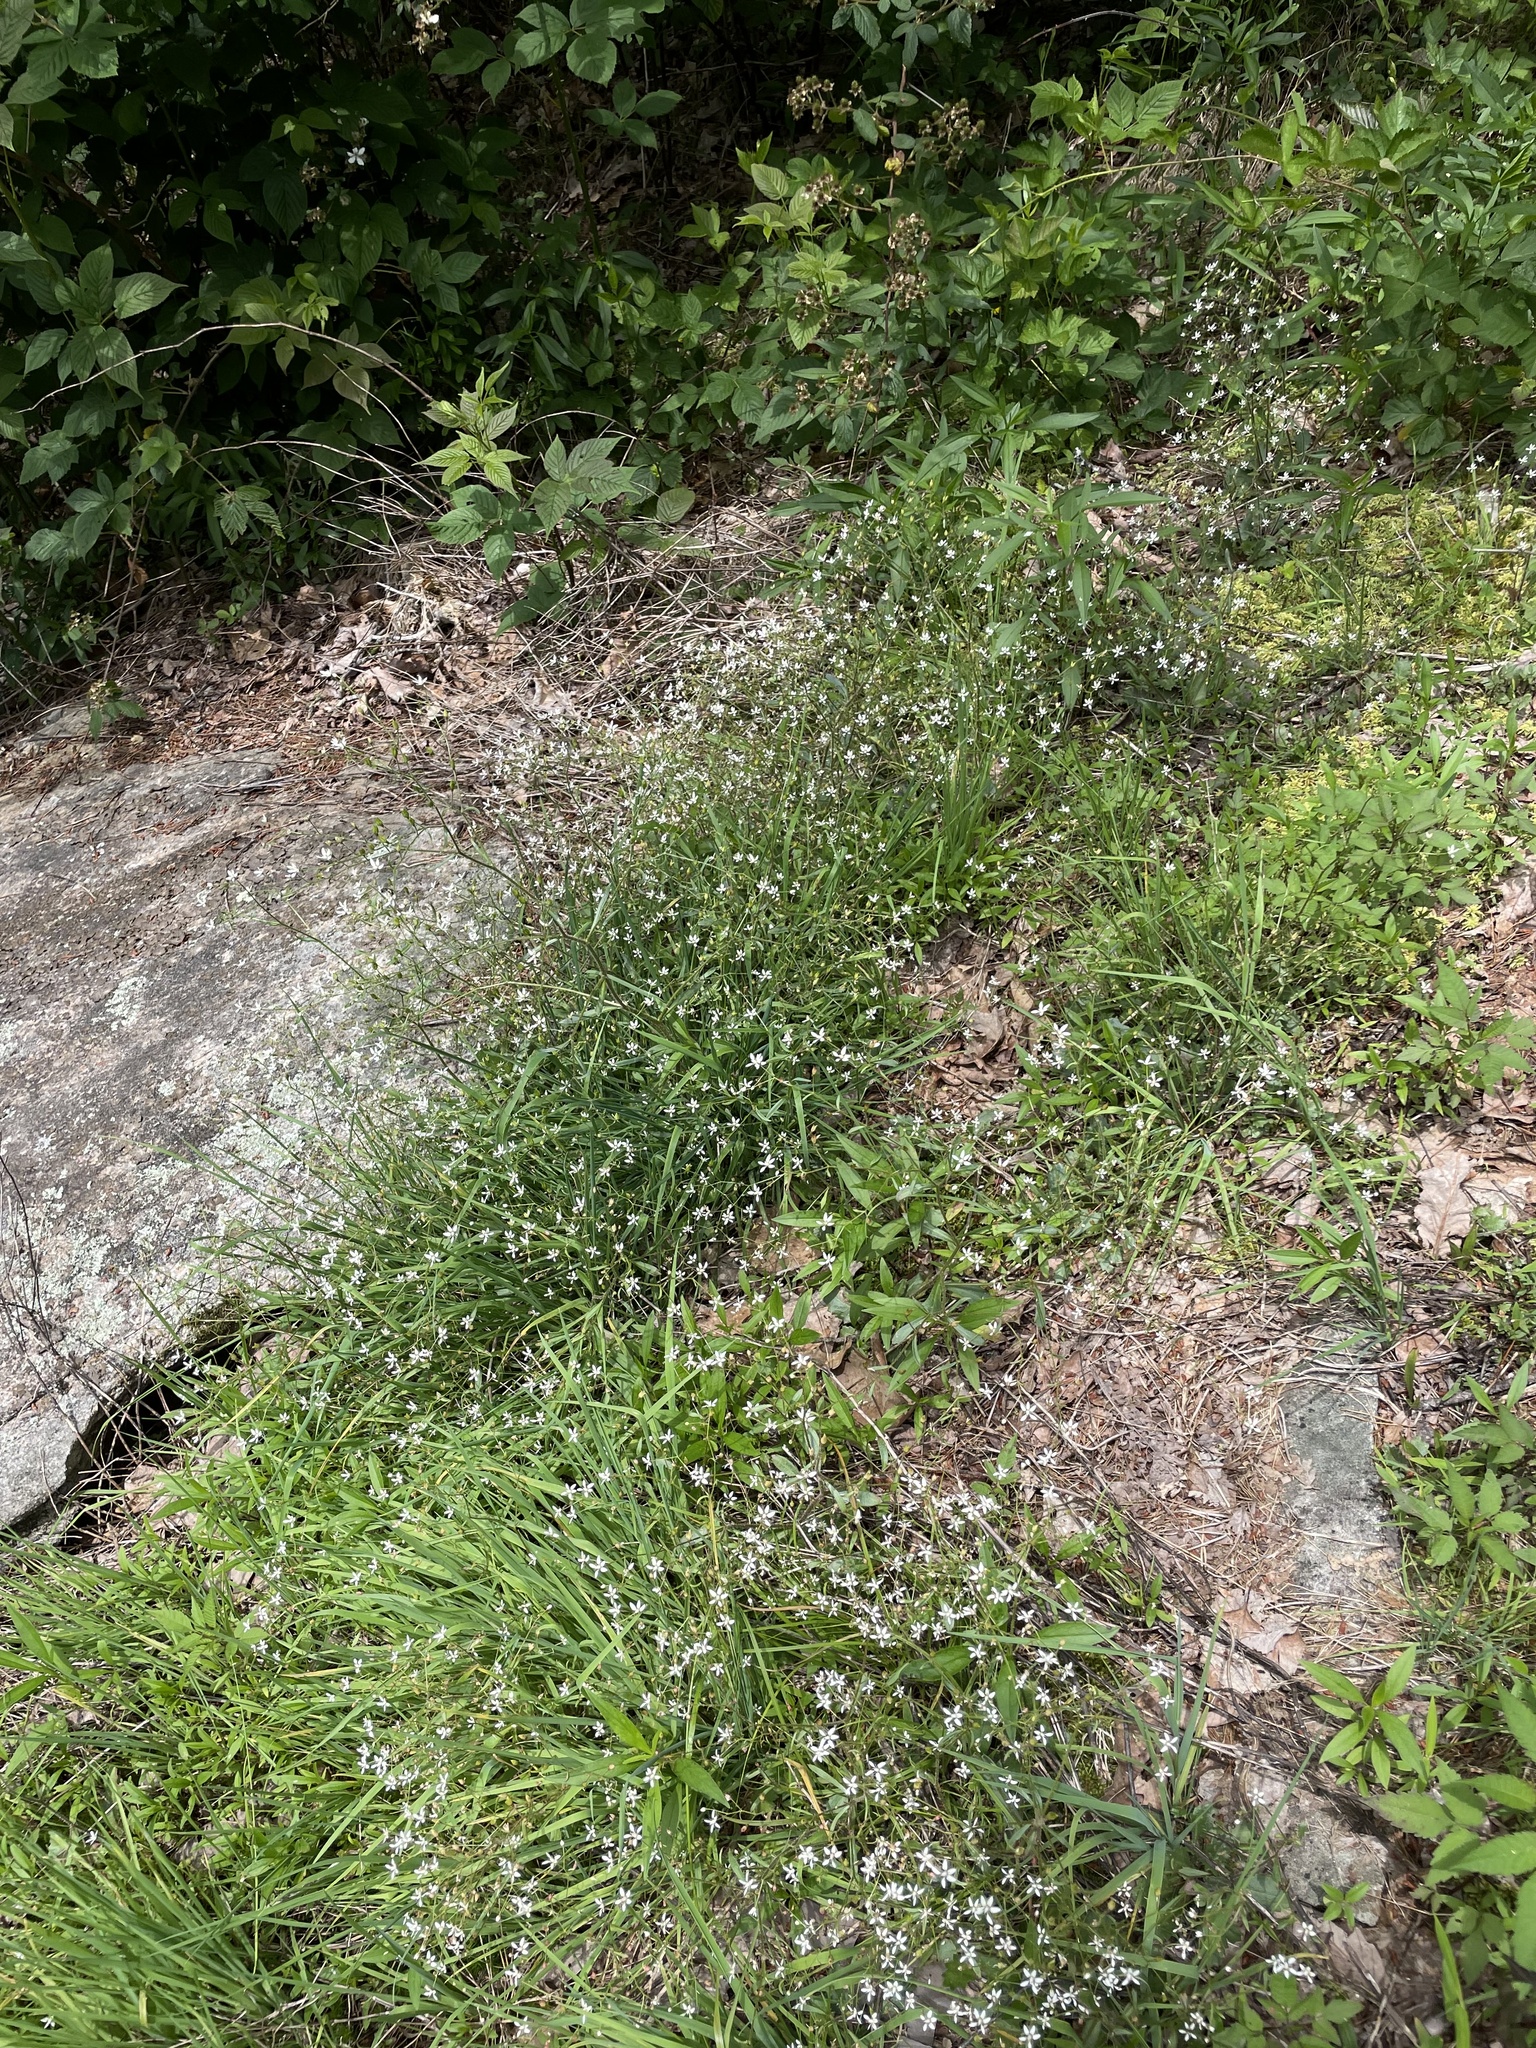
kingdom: Plantae
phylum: Tracheophyta
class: Magnoliopsida
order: Saxifragales
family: Saxifragaceae
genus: Micranthes
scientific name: Micranthes petiolaris
